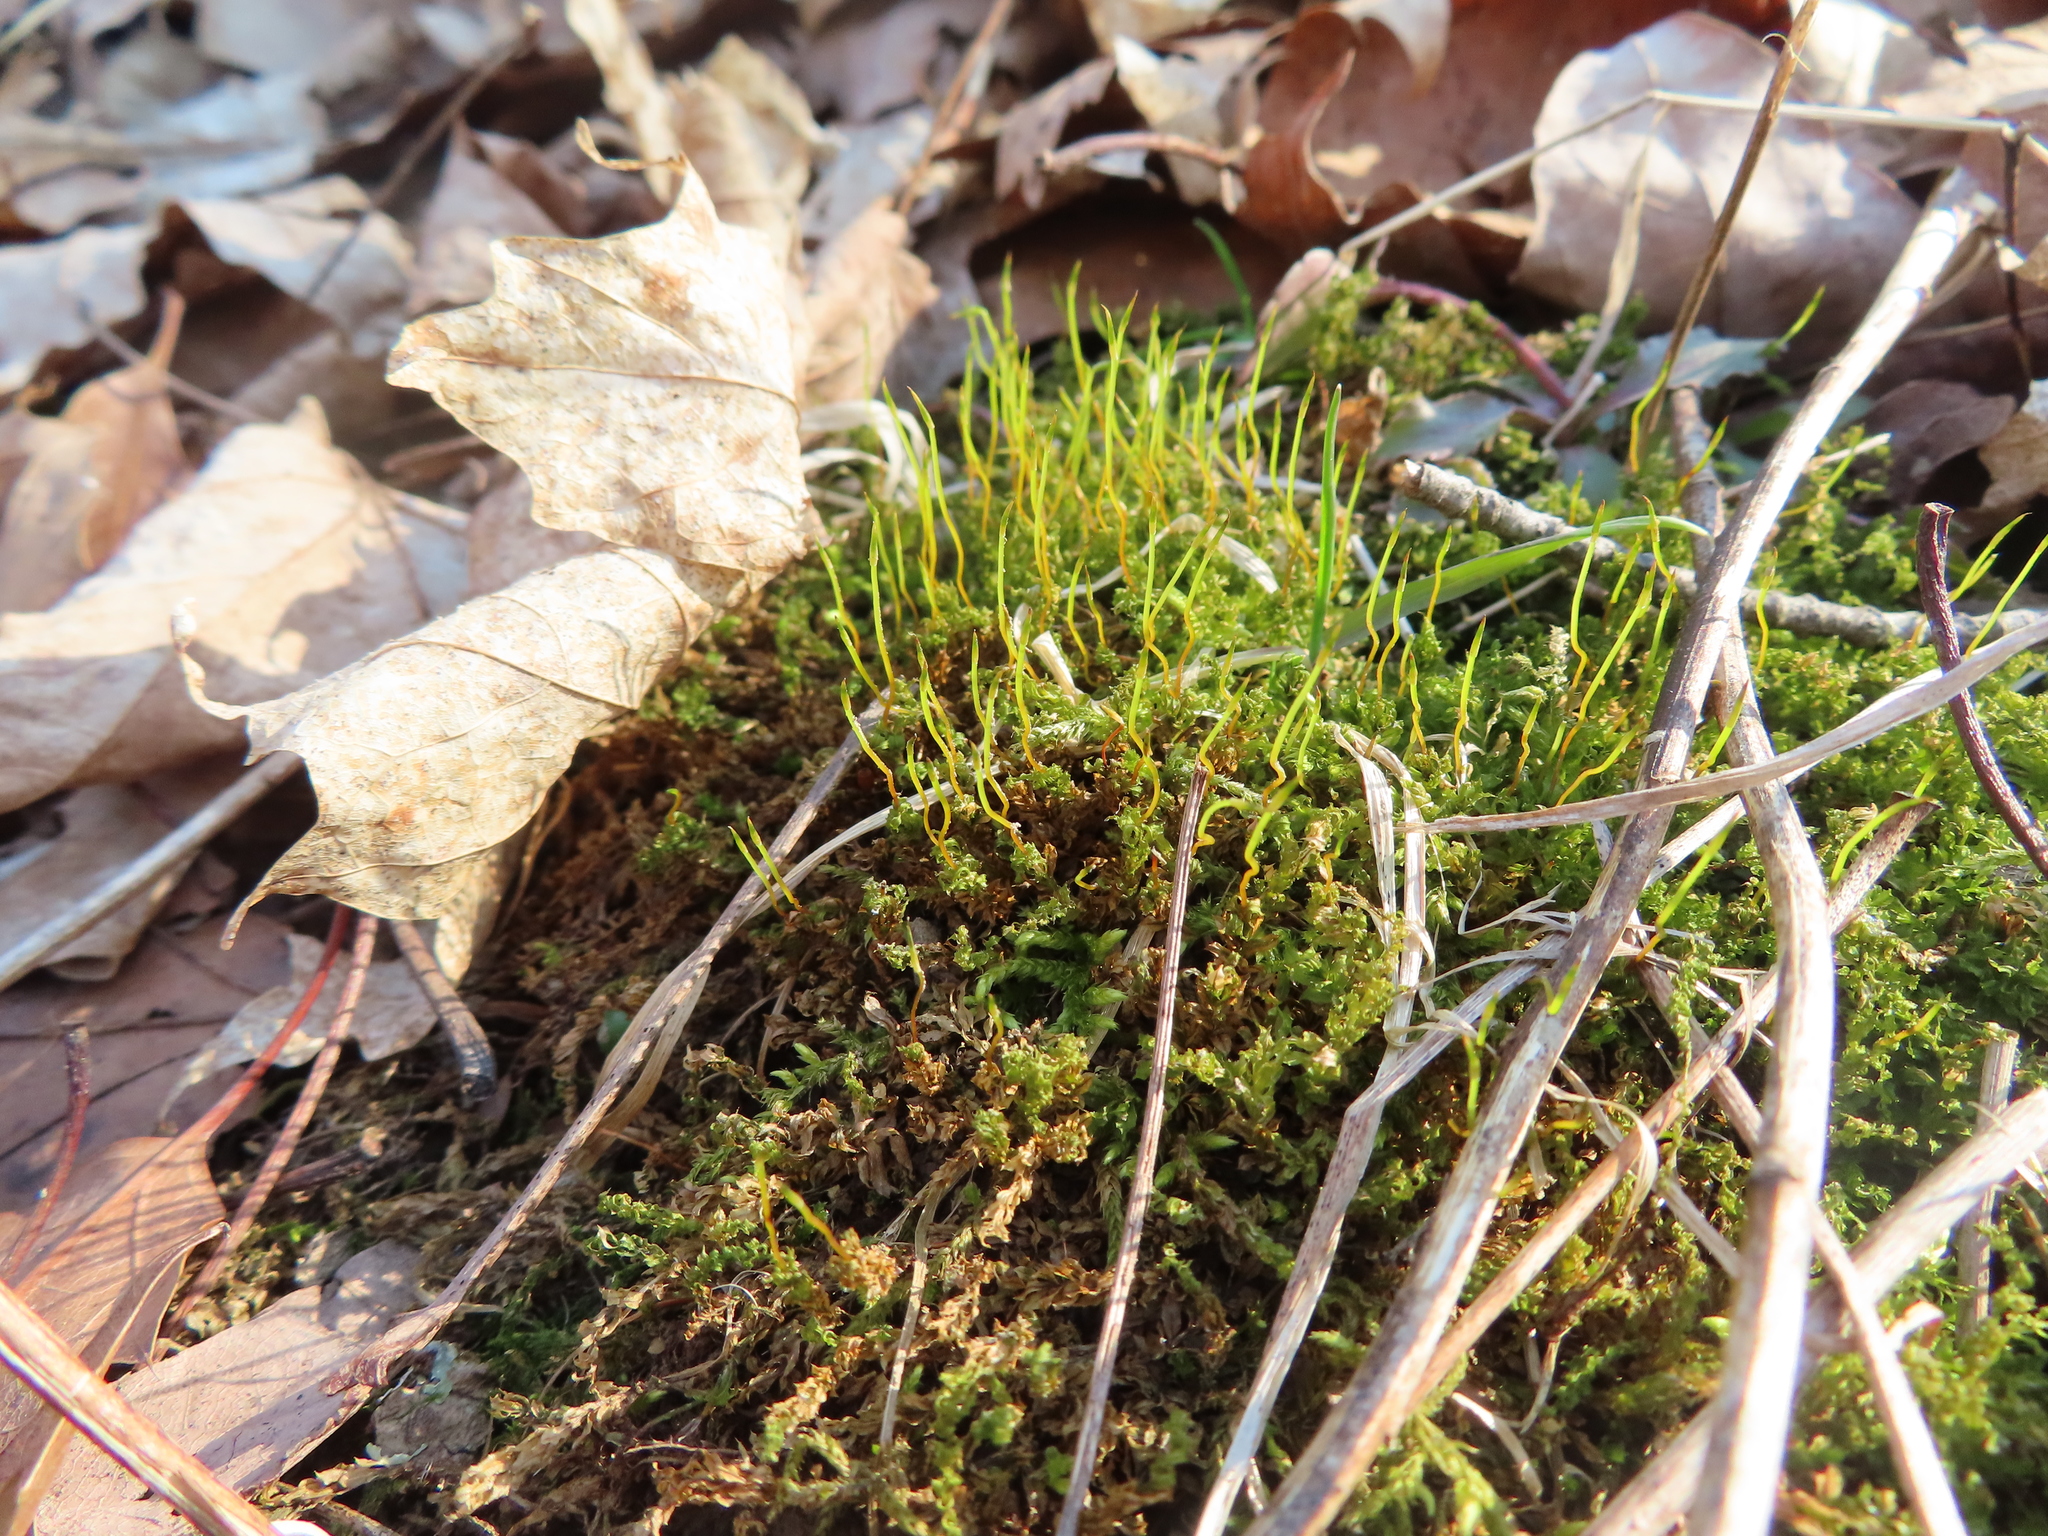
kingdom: Plantae
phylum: Bryophyta
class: Bryopsida
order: Bryales
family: Mniaceae
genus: Plagiomnium
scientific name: Plagiomnium cuspidatum
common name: Woodsy leafy moss
